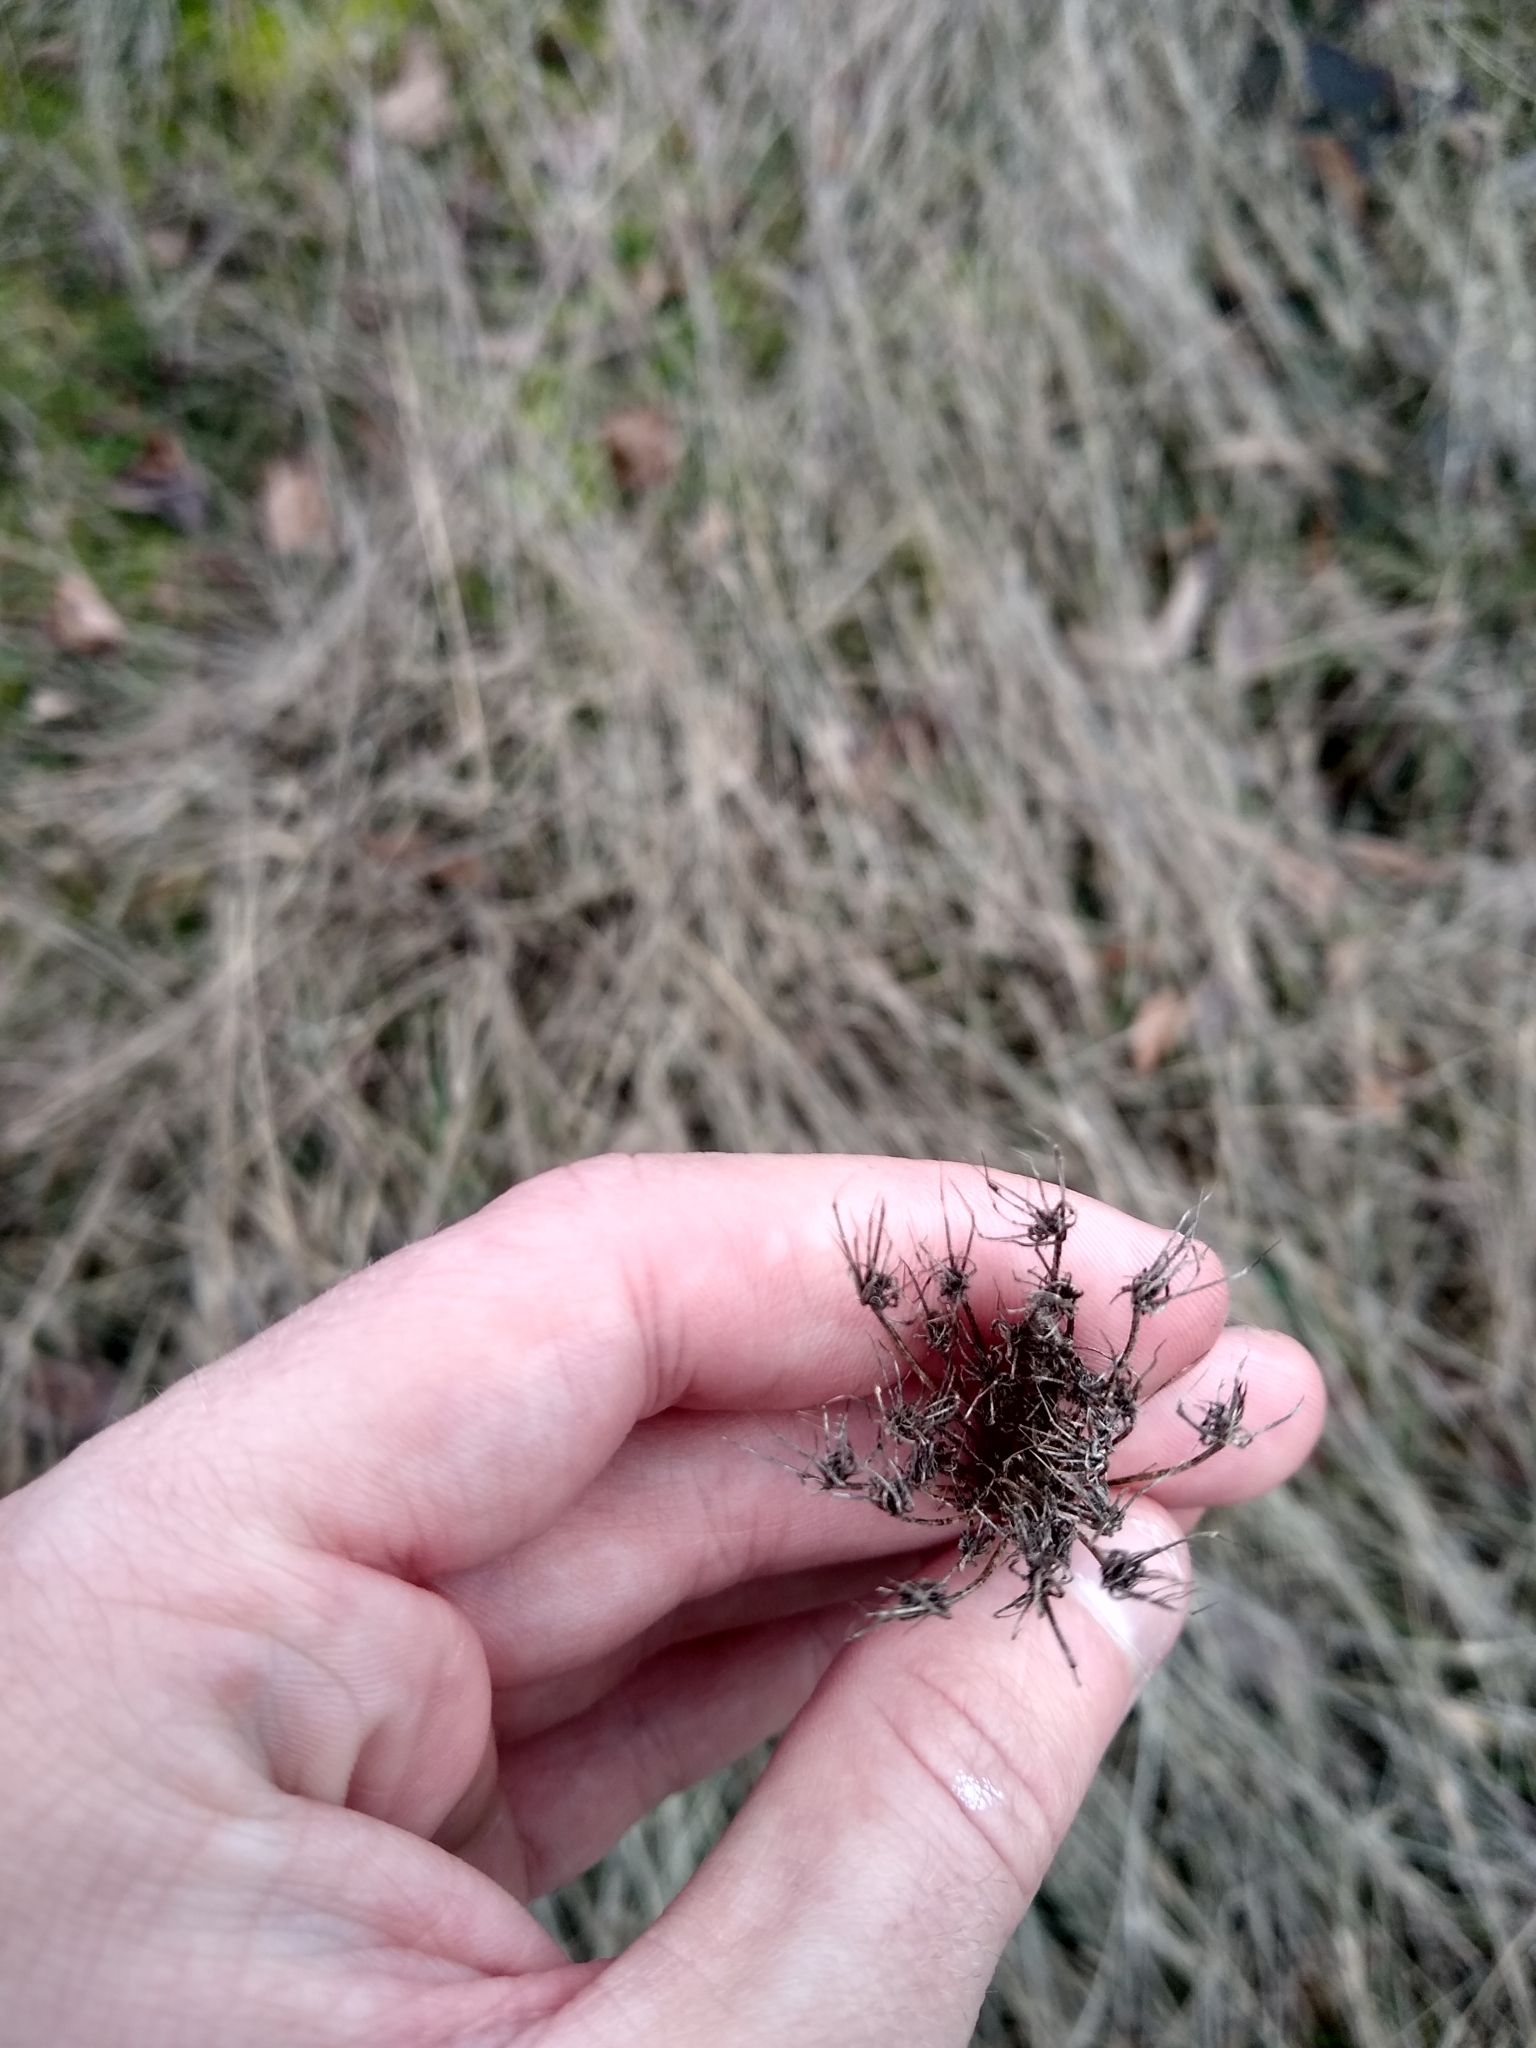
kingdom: Plantae
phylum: Tracheophyta
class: Magnoliopsida
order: Apiales
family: Apiaceae
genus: Daucus
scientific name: Daucus carota
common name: Wild carrot
